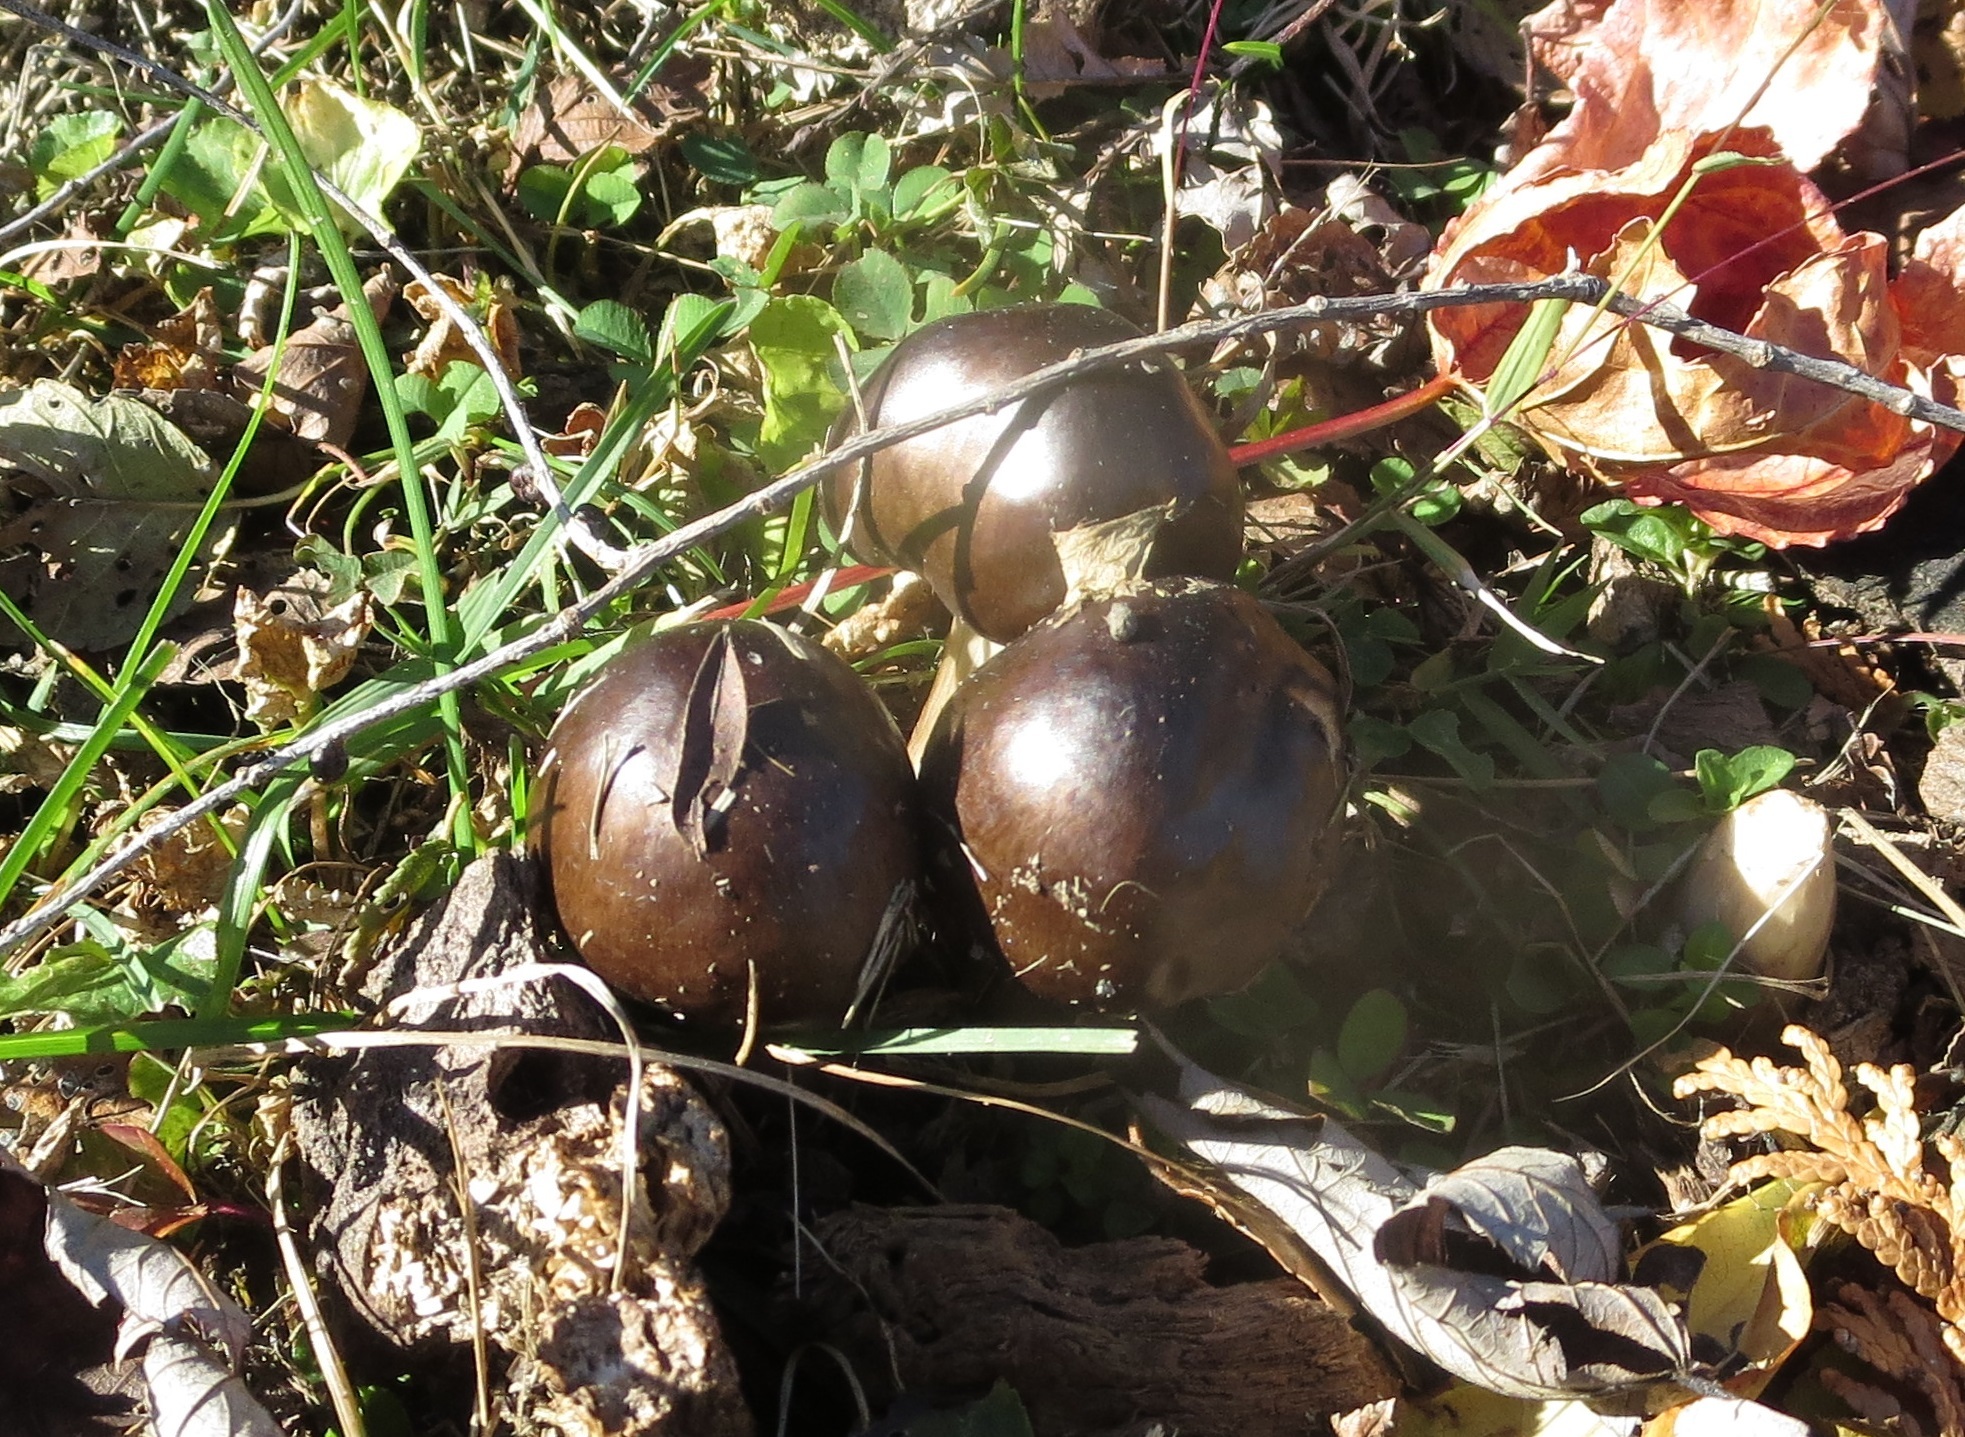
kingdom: Fungi
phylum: Basidiomycota
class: Agaricomycetes
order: Agaricales
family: Pluteaceae
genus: Pluteus
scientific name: Pluteus petasatus
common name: Scaly shield
